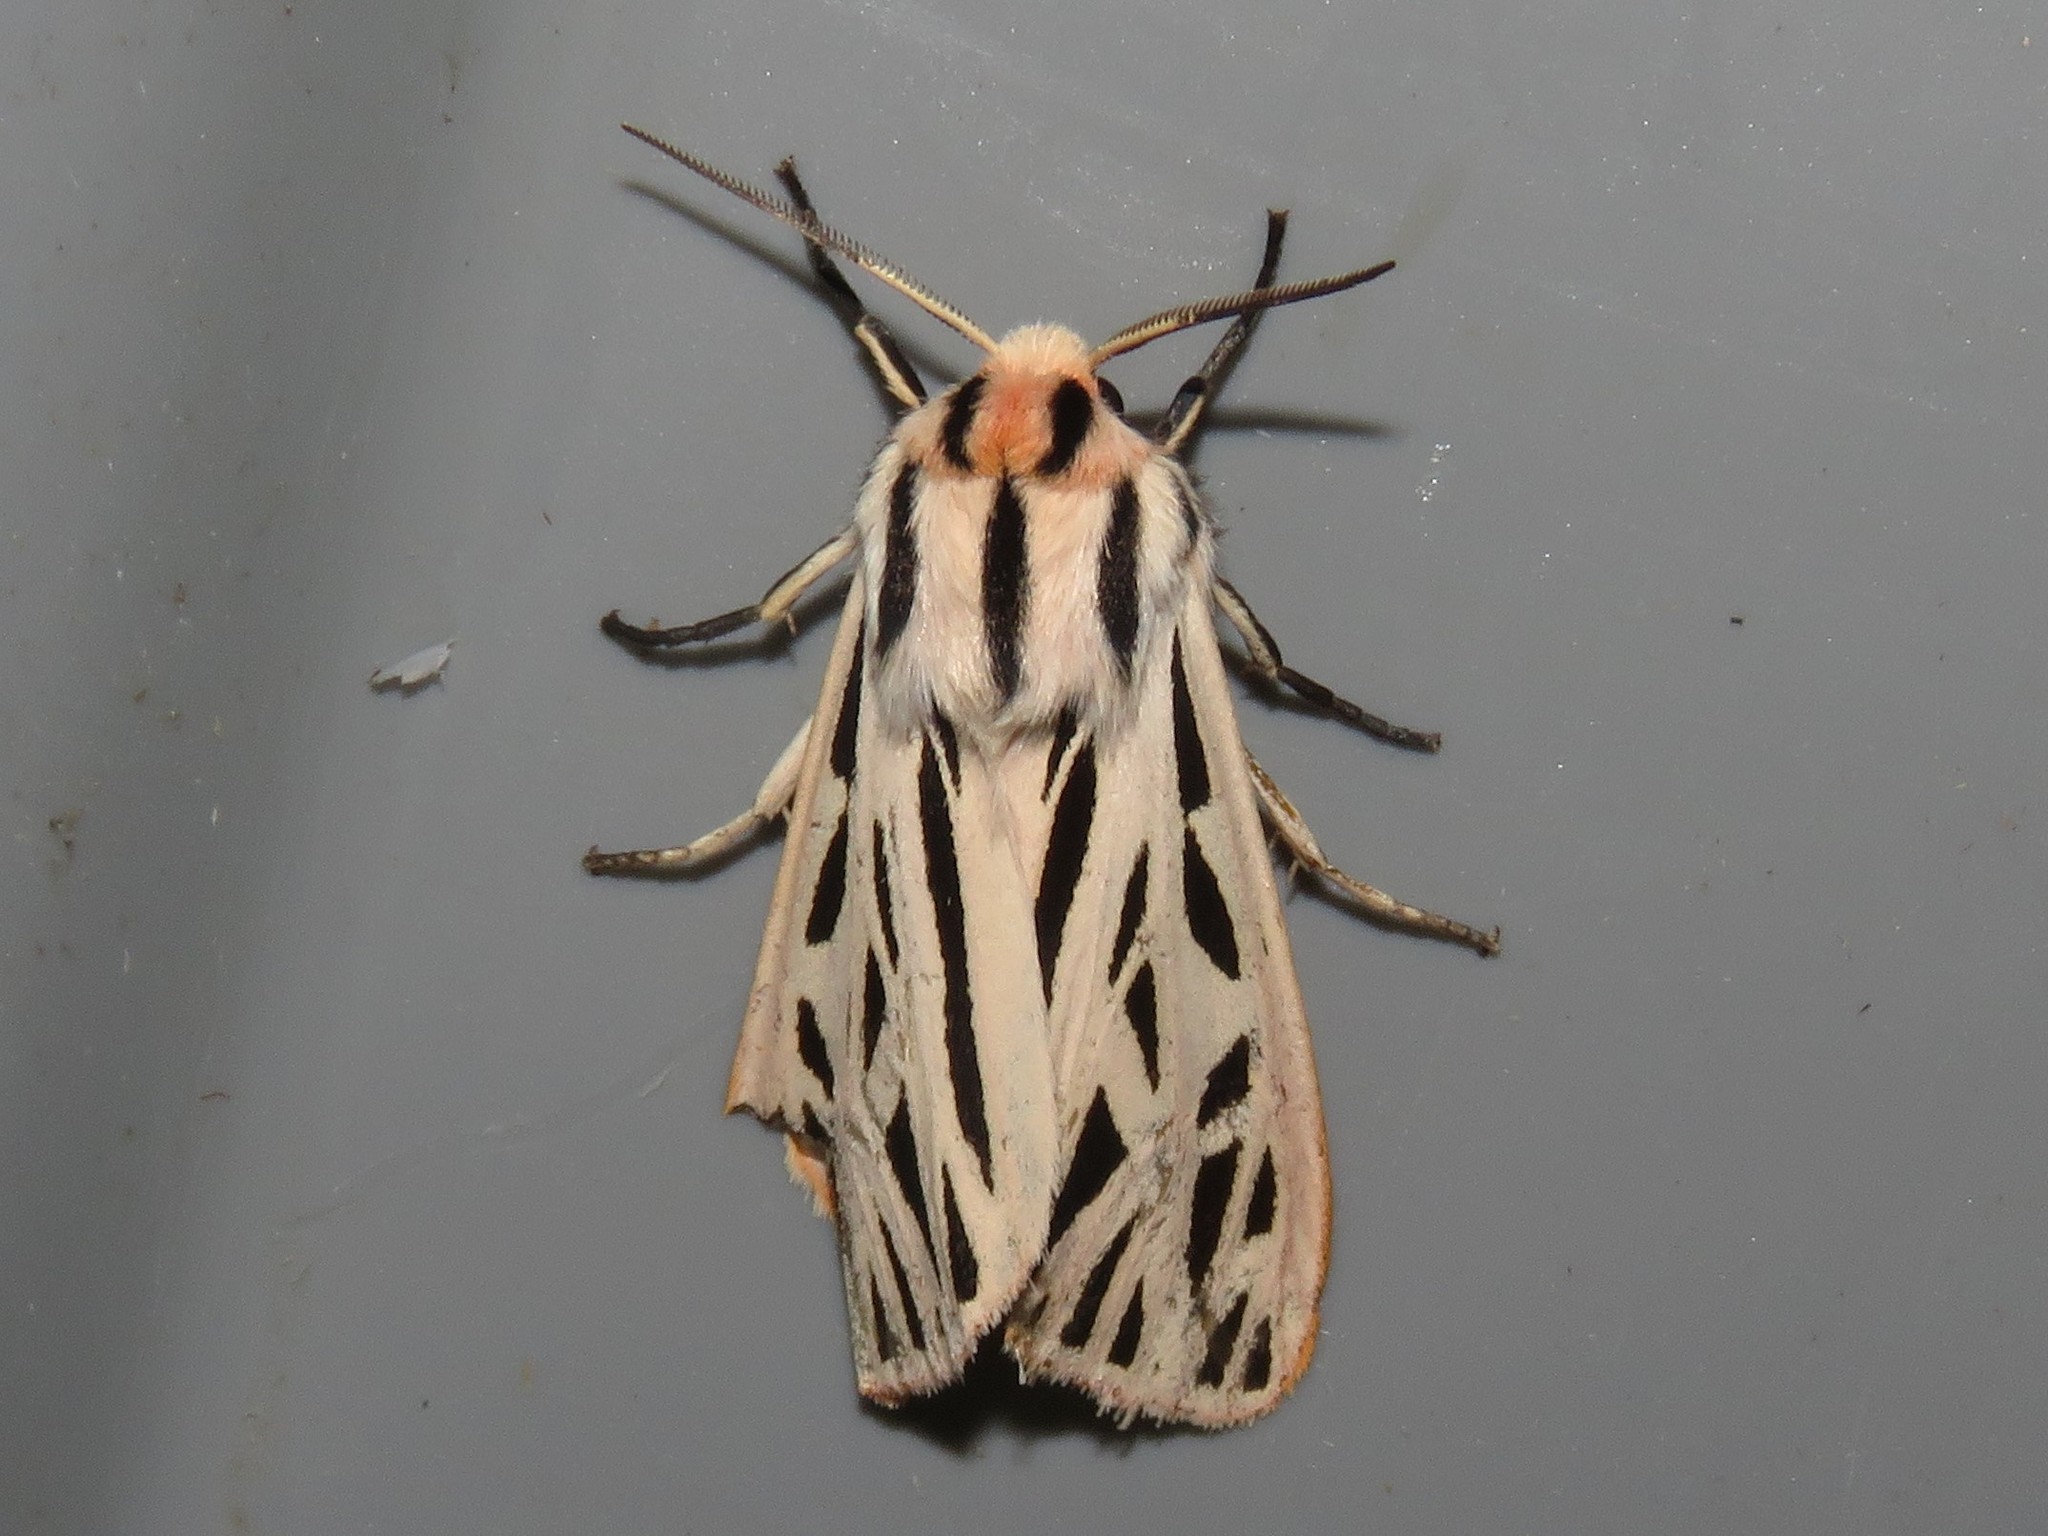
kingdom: Animalia
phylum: Arthropoda
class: Insecta
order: Lepidoptera
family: Erebidae
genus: Apantesis
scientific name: Apantesis arge
